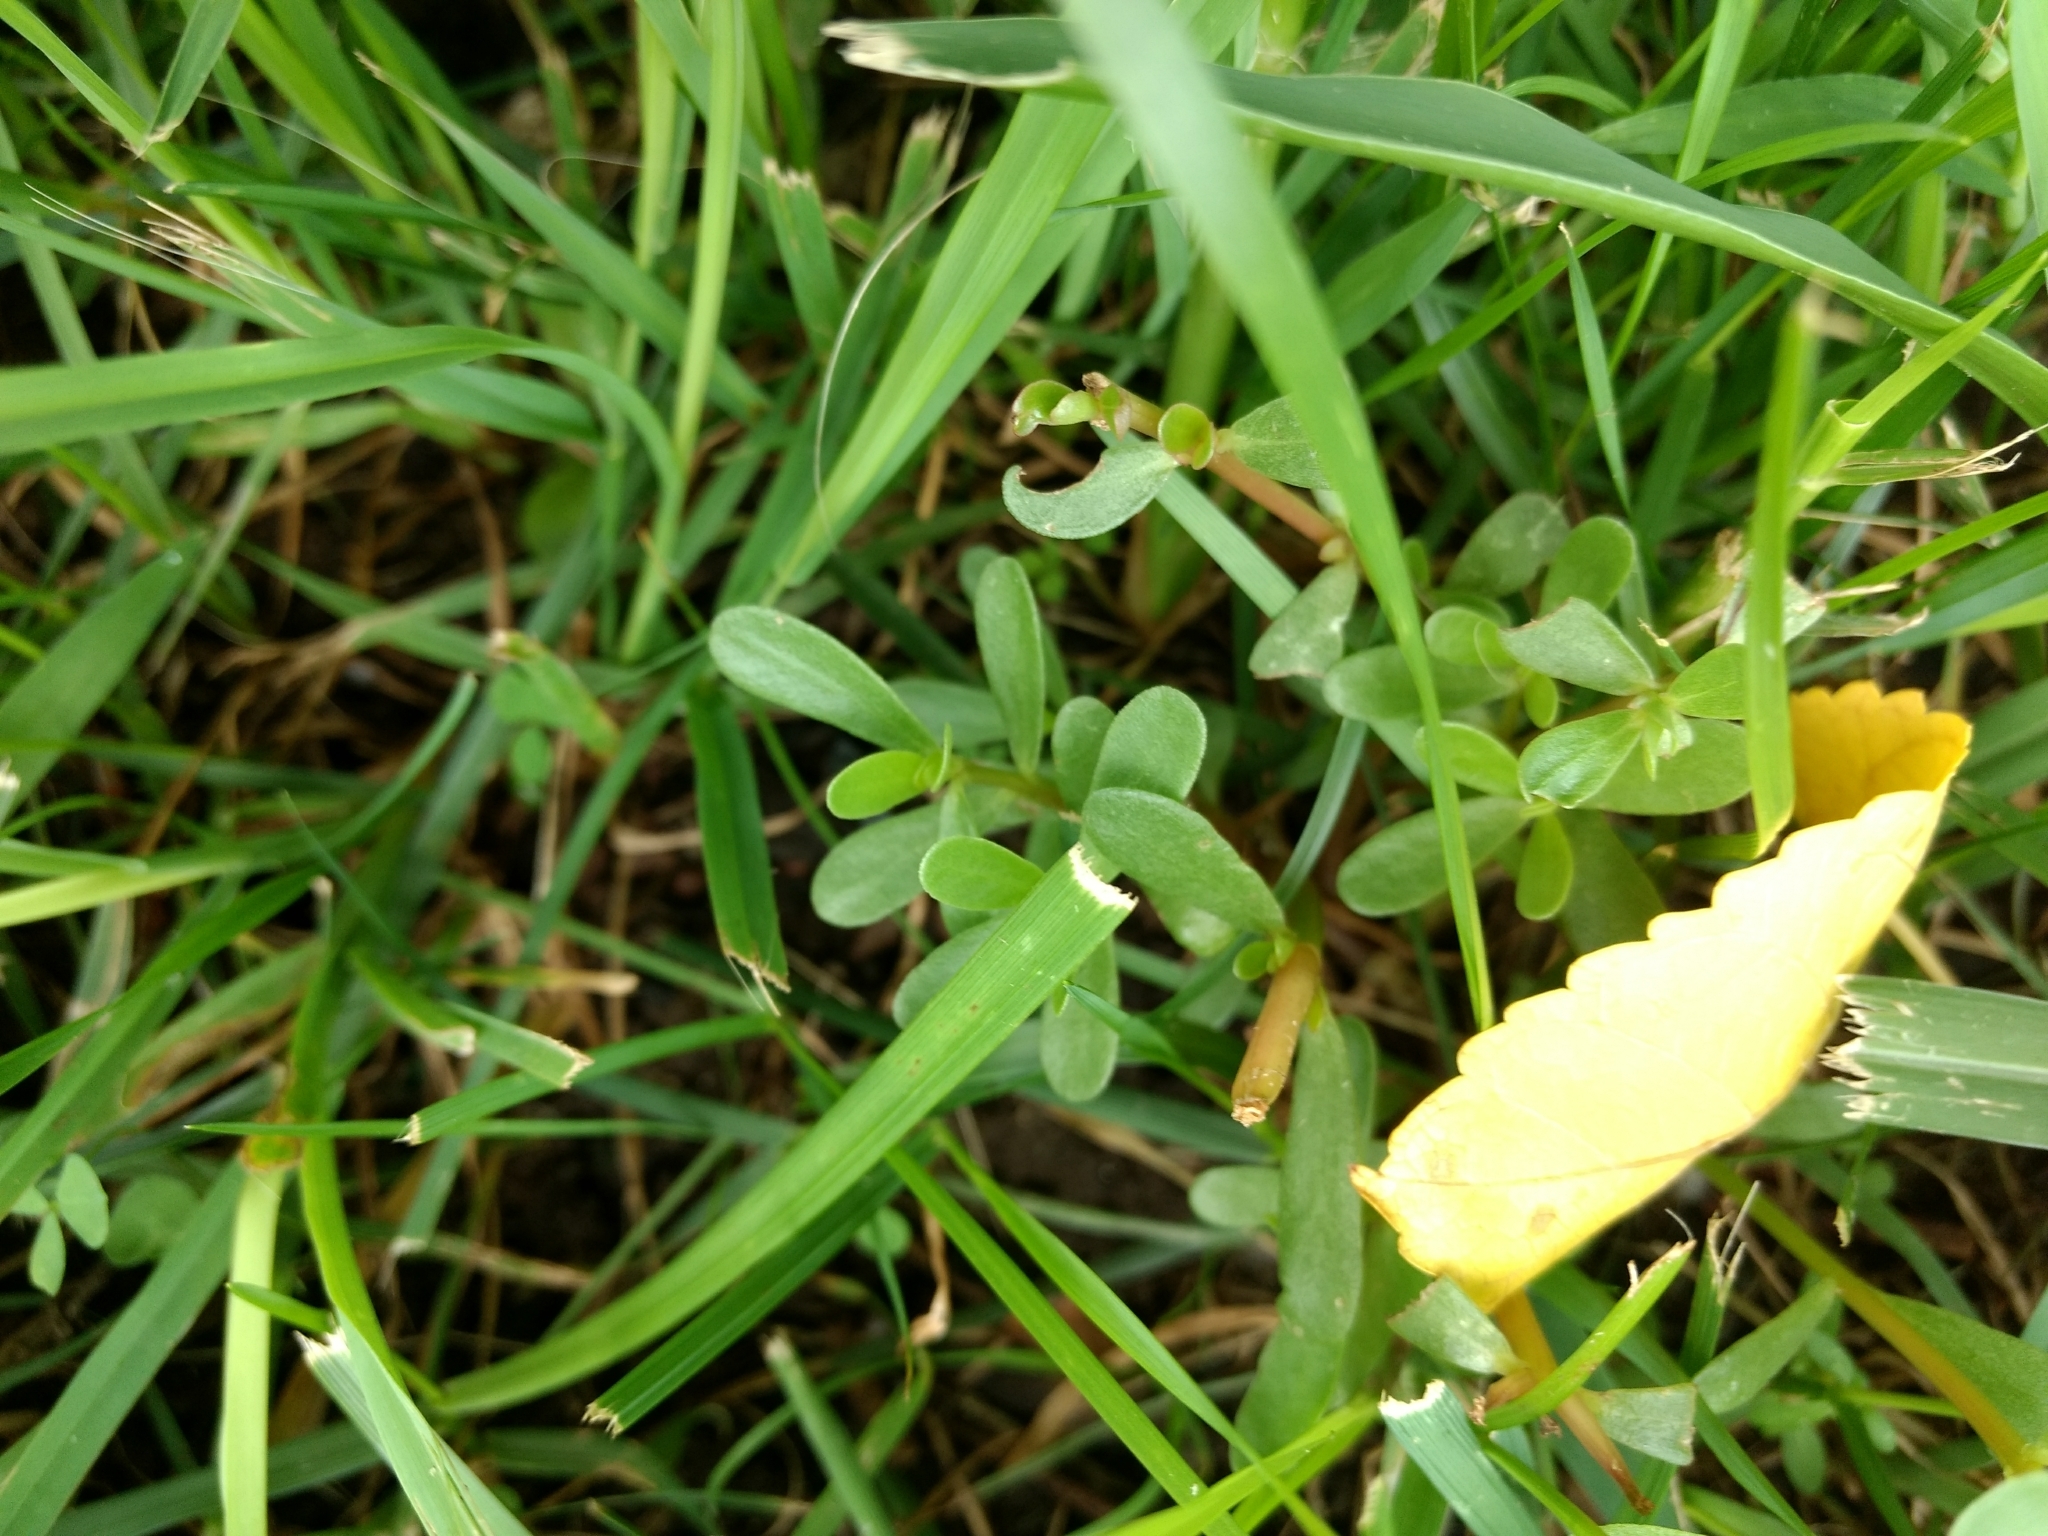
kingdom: Plantae
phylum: Tracheophyta
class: Magnoliopsida
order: Caryophyllales
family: Portulacaceae
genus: Portulaca
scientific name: Portulaca oleracea
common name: Common purslane
